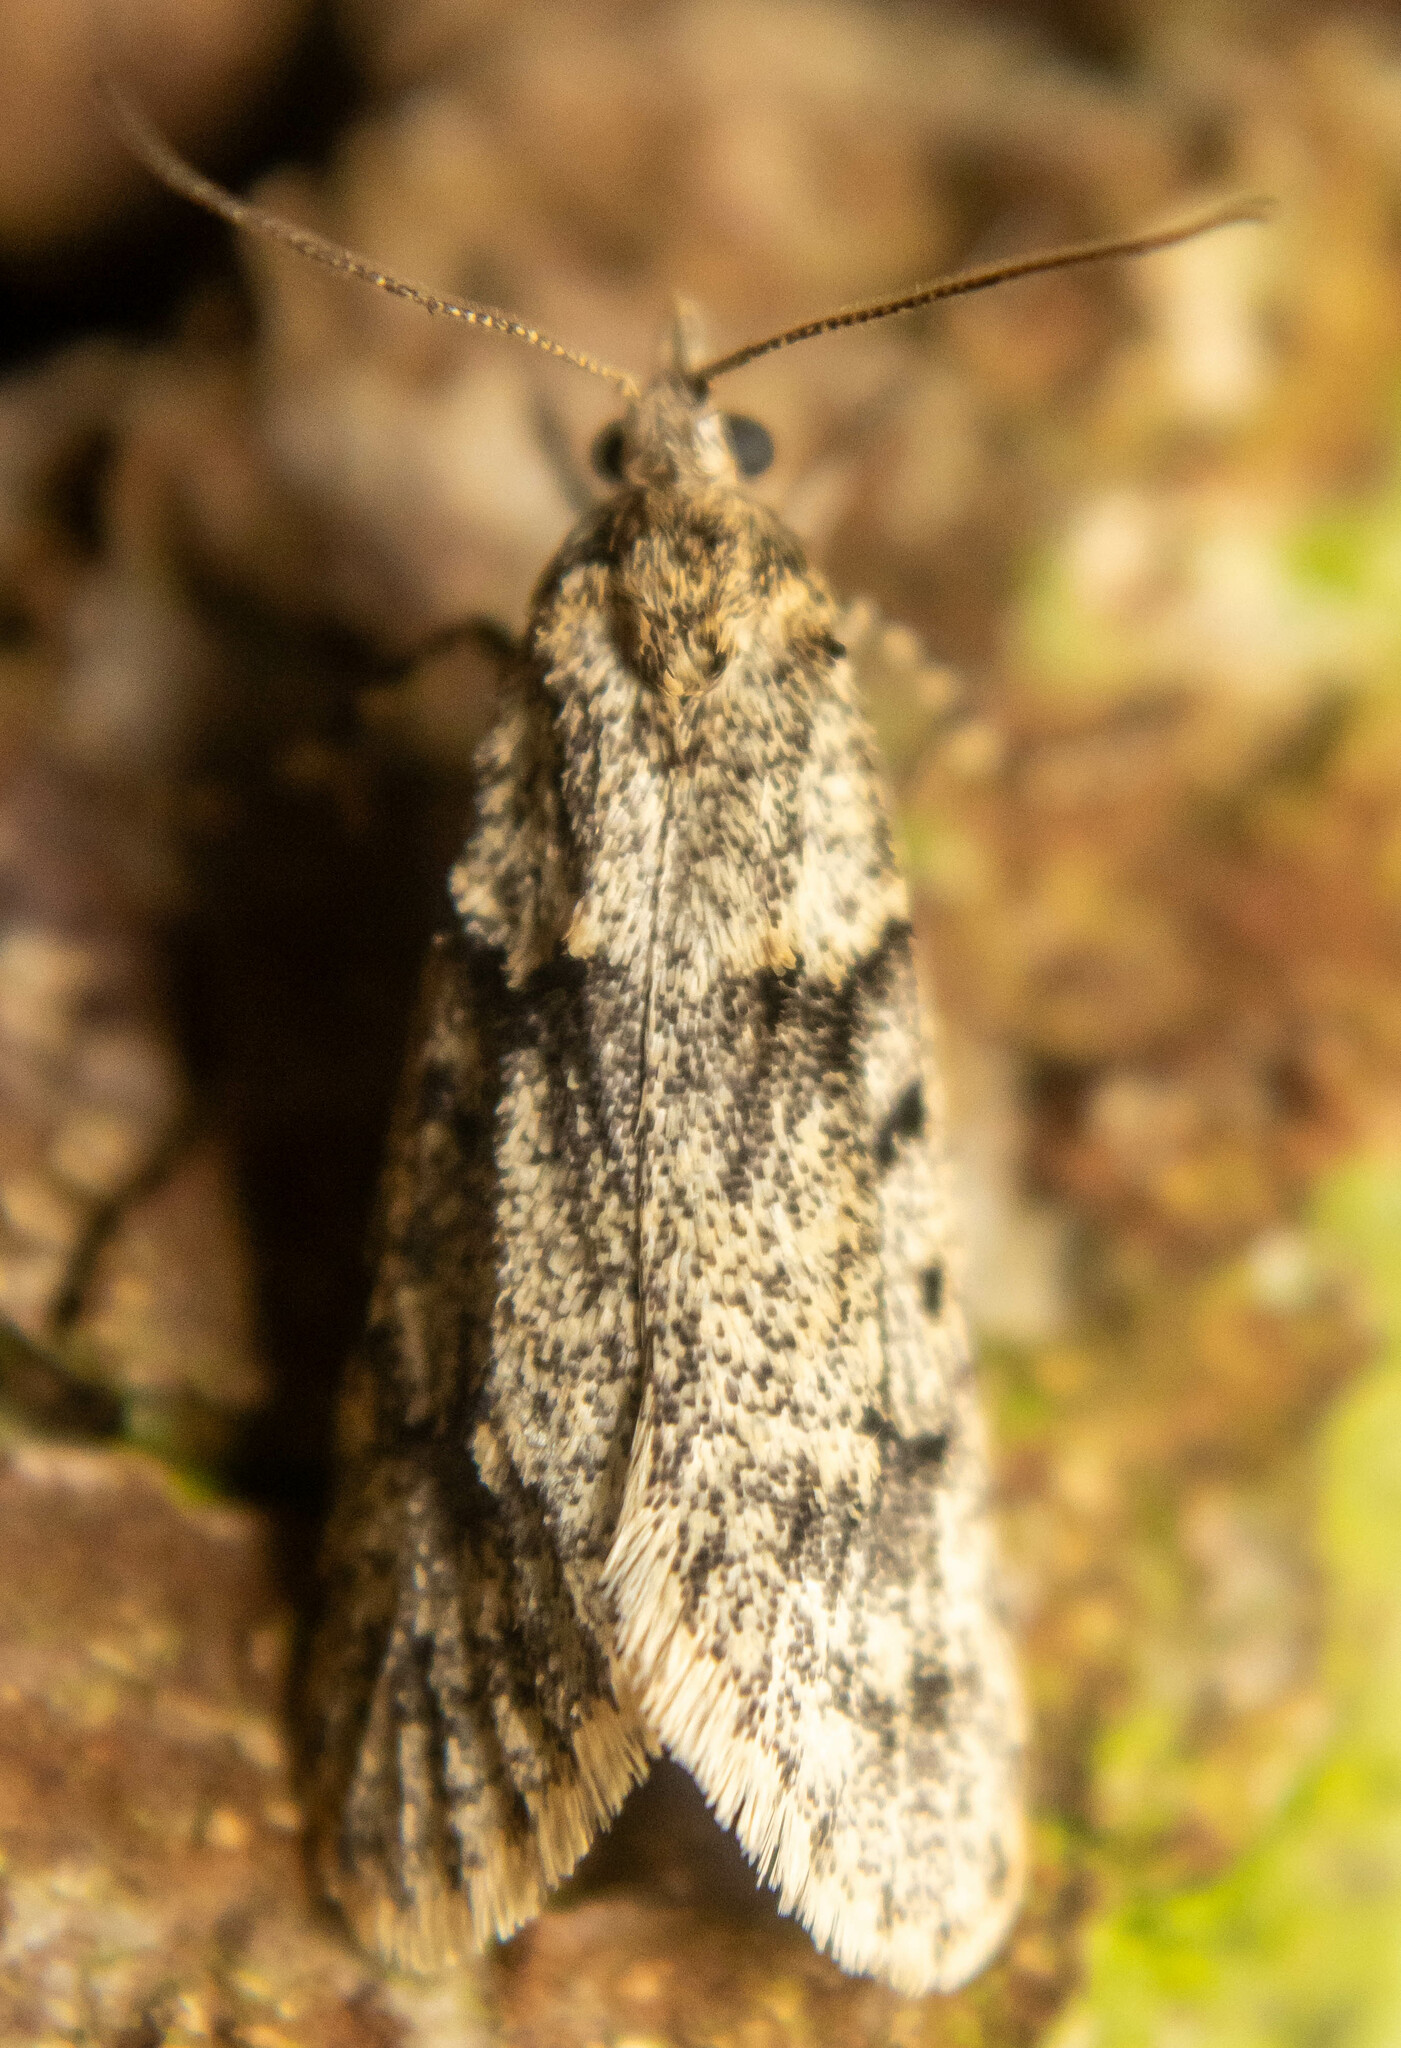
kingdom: Animalia
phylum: Arthropoda
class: Insecta
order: Lepidoptera
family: Lypusidae
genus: Diurnea
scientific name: Diurnea fagella
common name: March tubic
